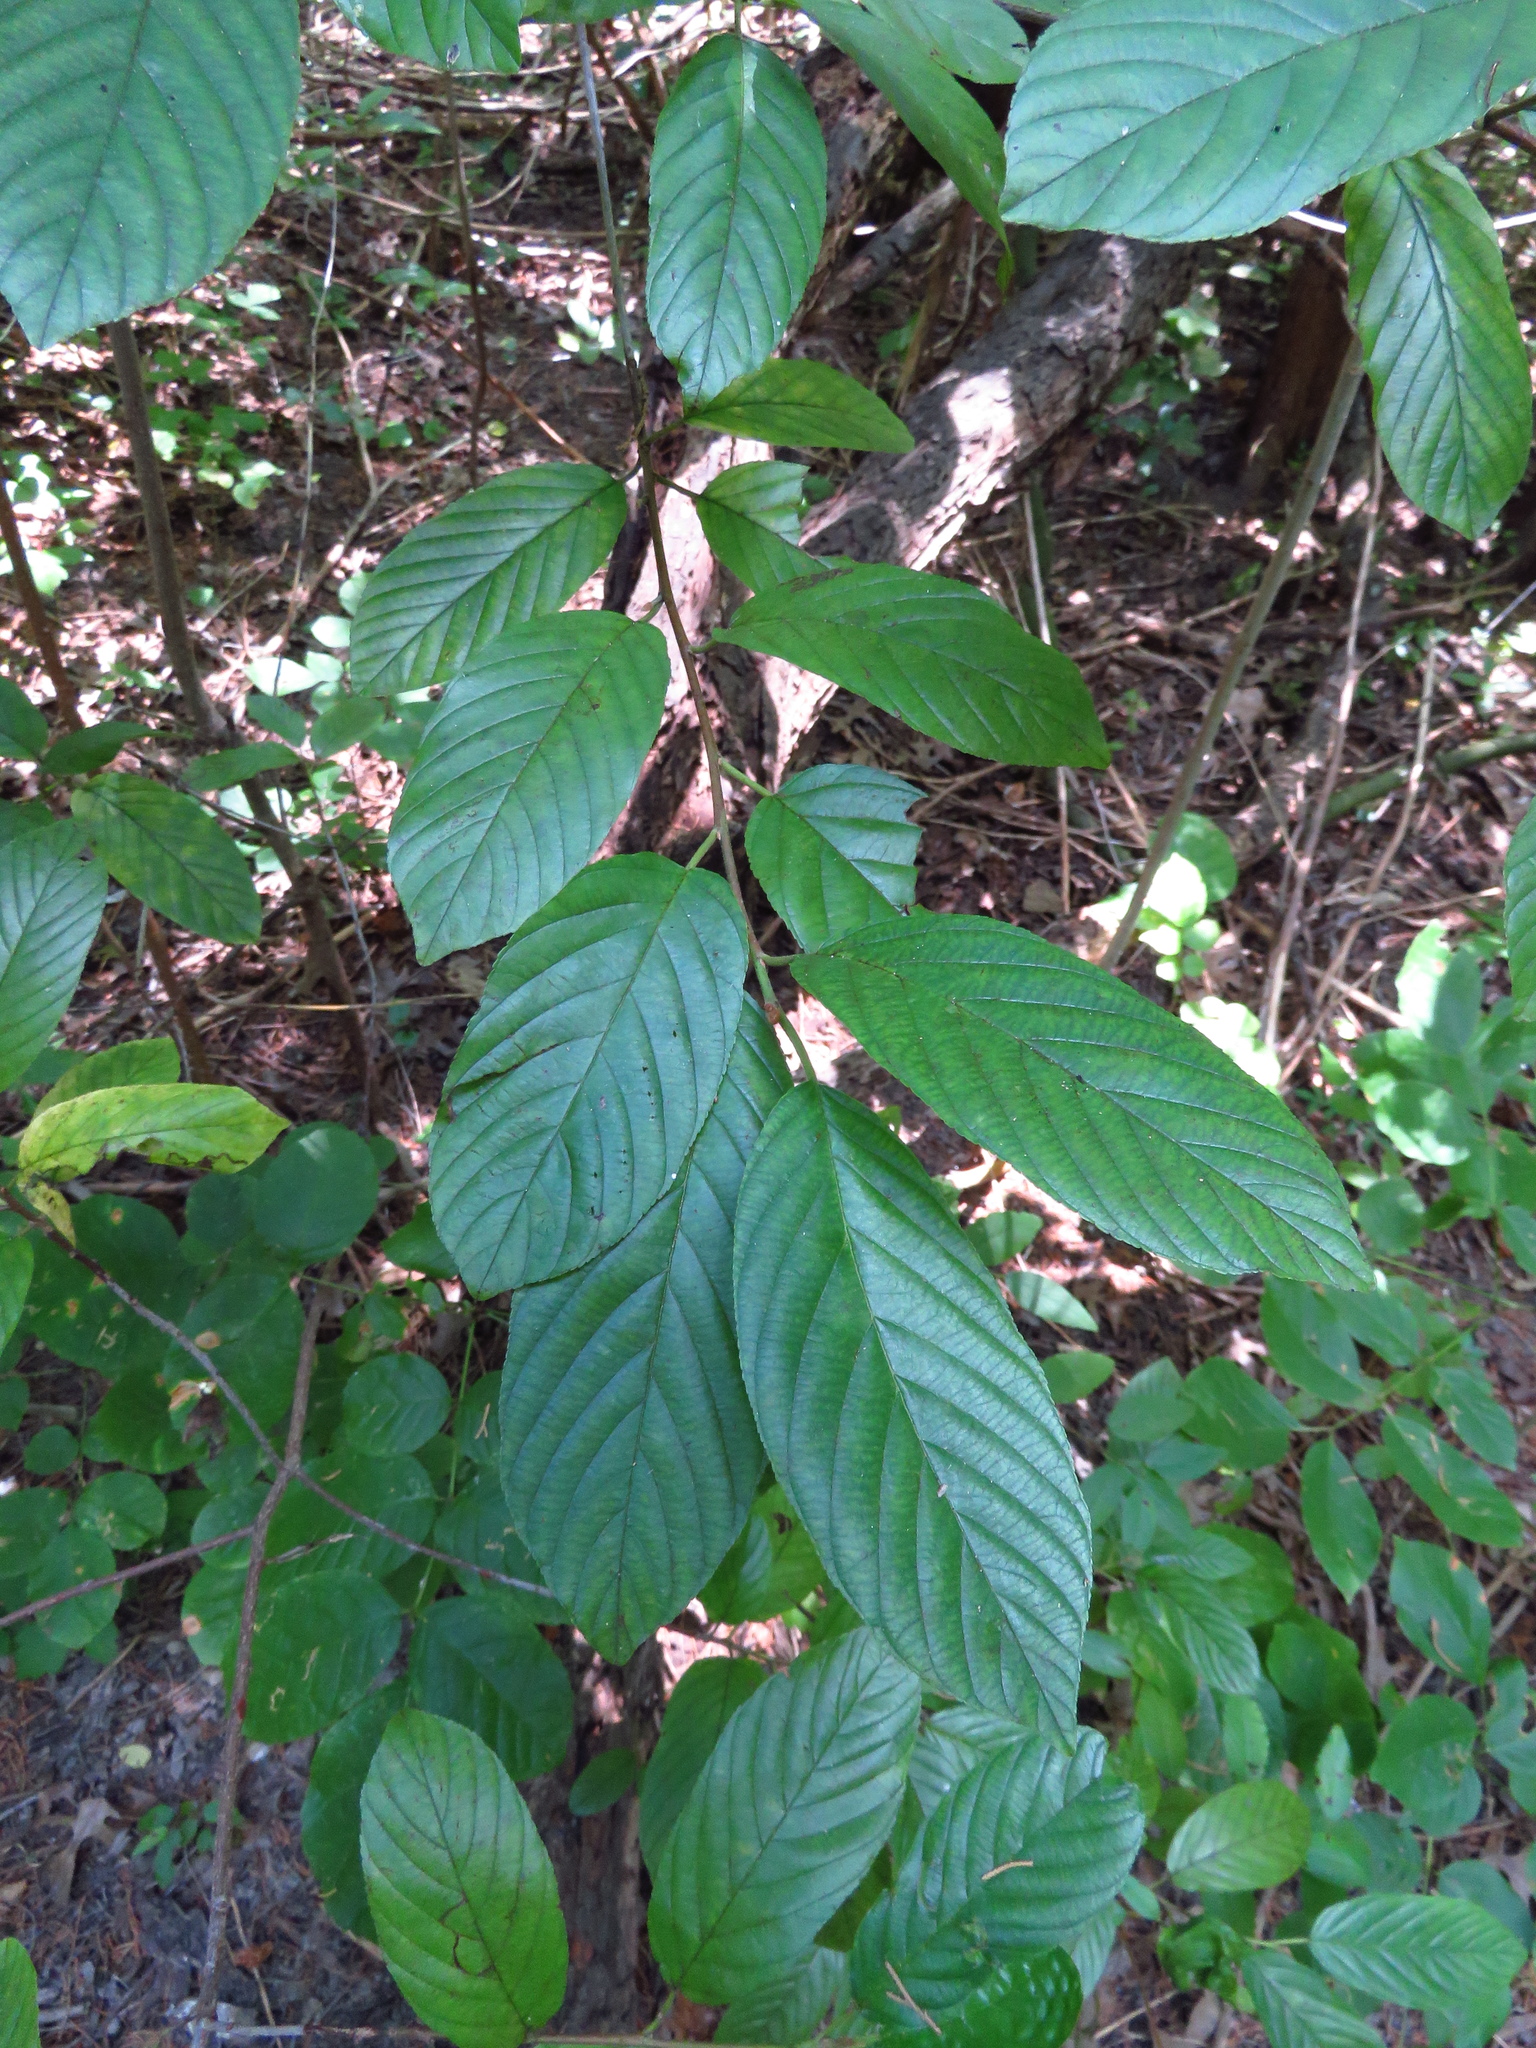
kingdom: Plantae
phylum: Tracheophyta
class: Magnoliopsida
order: Rosales
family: Rhamnaceae
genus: Frangula
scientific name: Frangula caroliniana
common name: Carolina buckthorn
